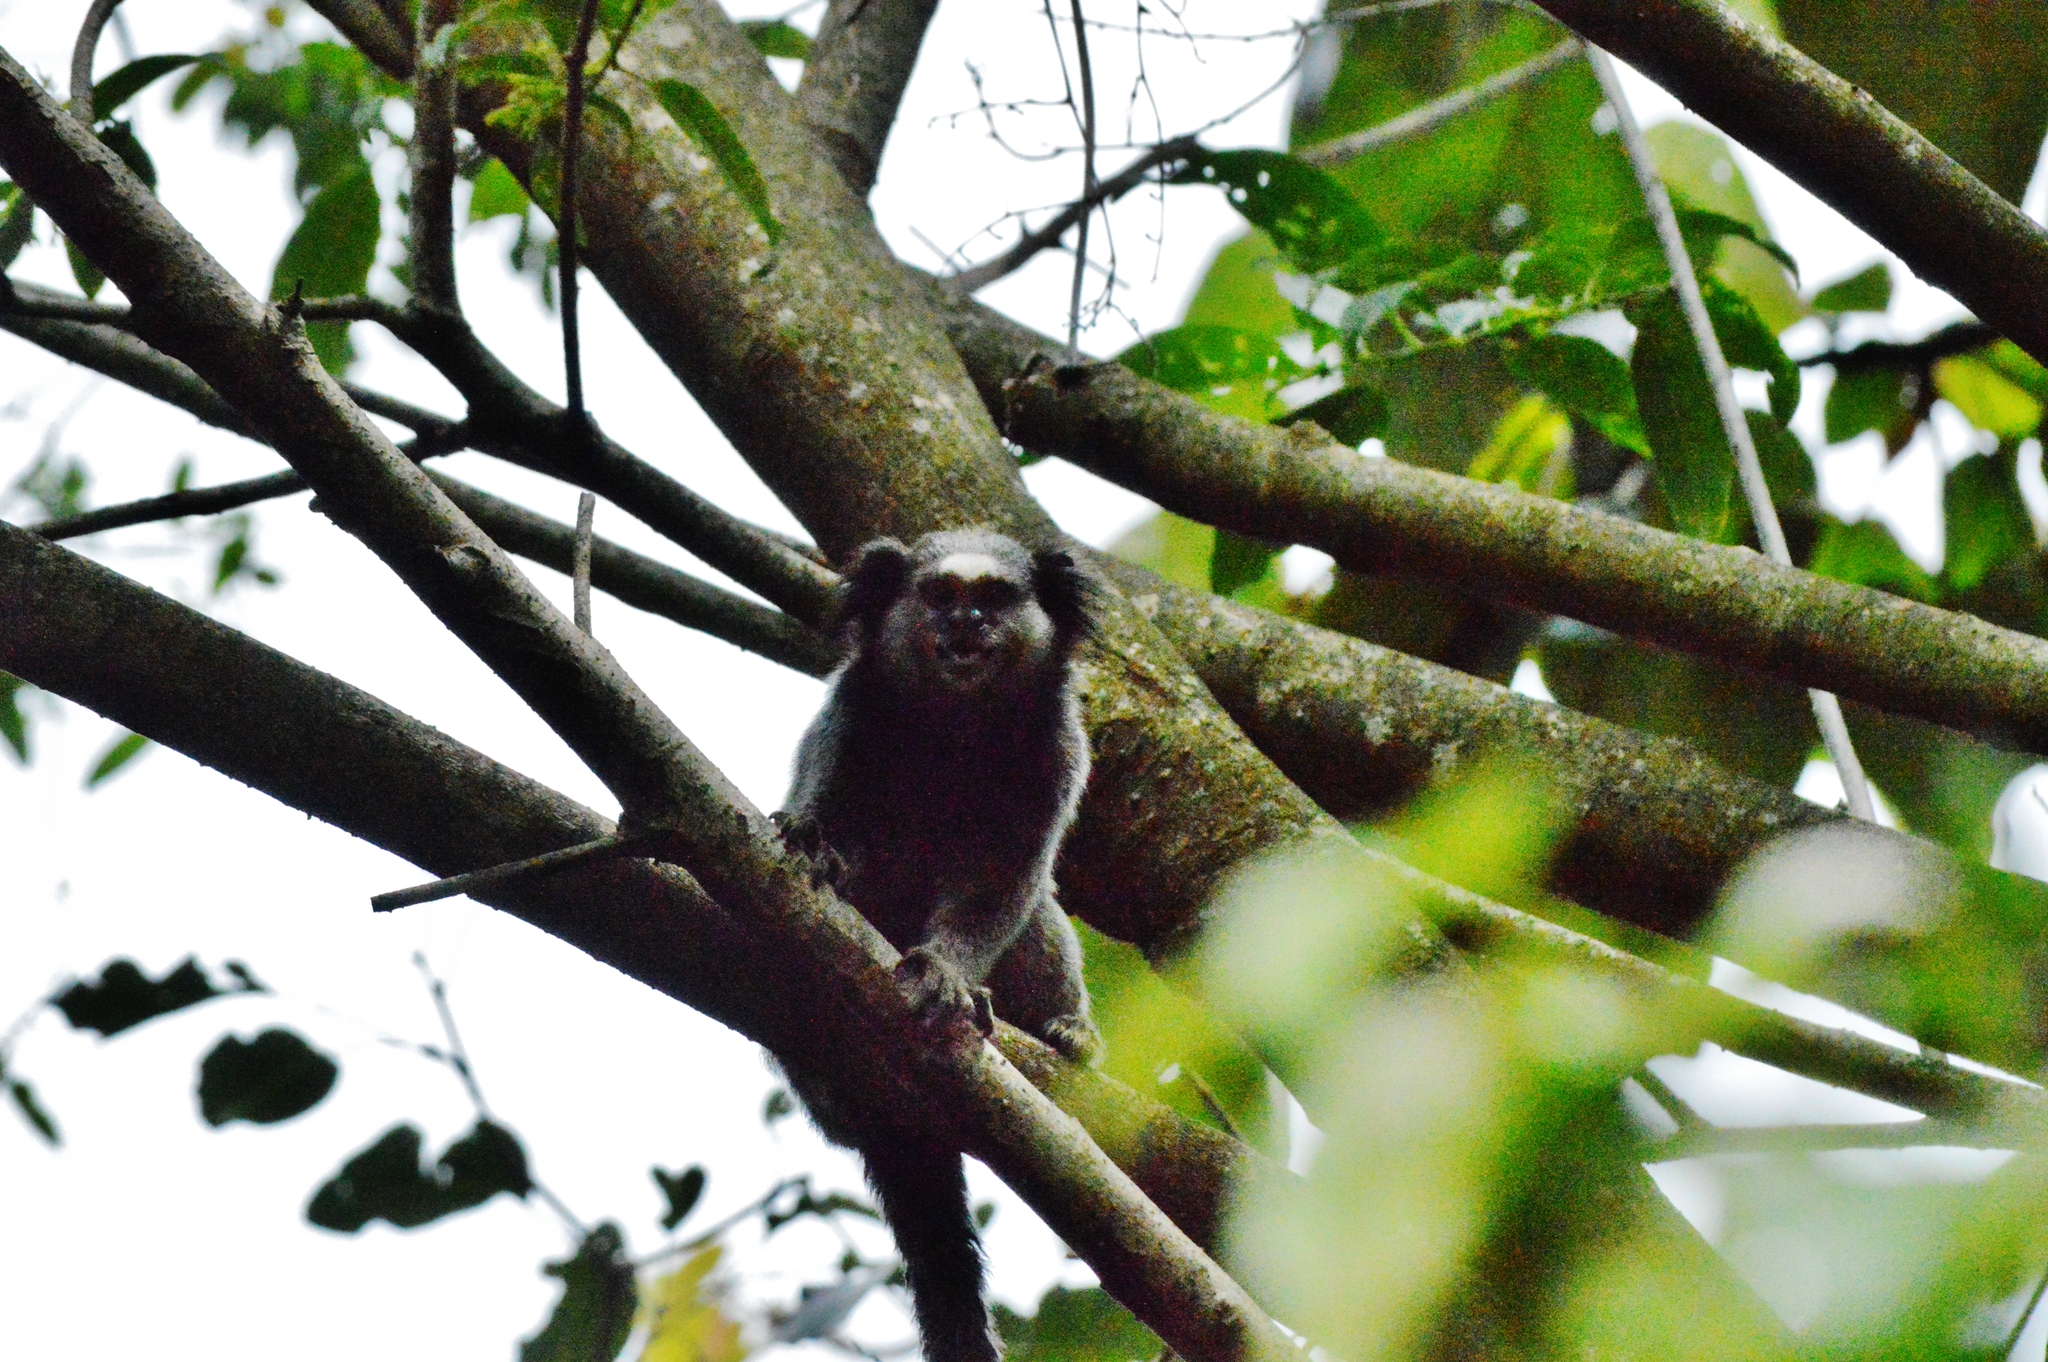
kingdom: Animalia
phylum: Chordata
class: Mammalia
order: Primates
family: Callitrichidae
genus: Callithrix
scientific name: Callithrix penicillata
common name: Black-tufted marmoset
